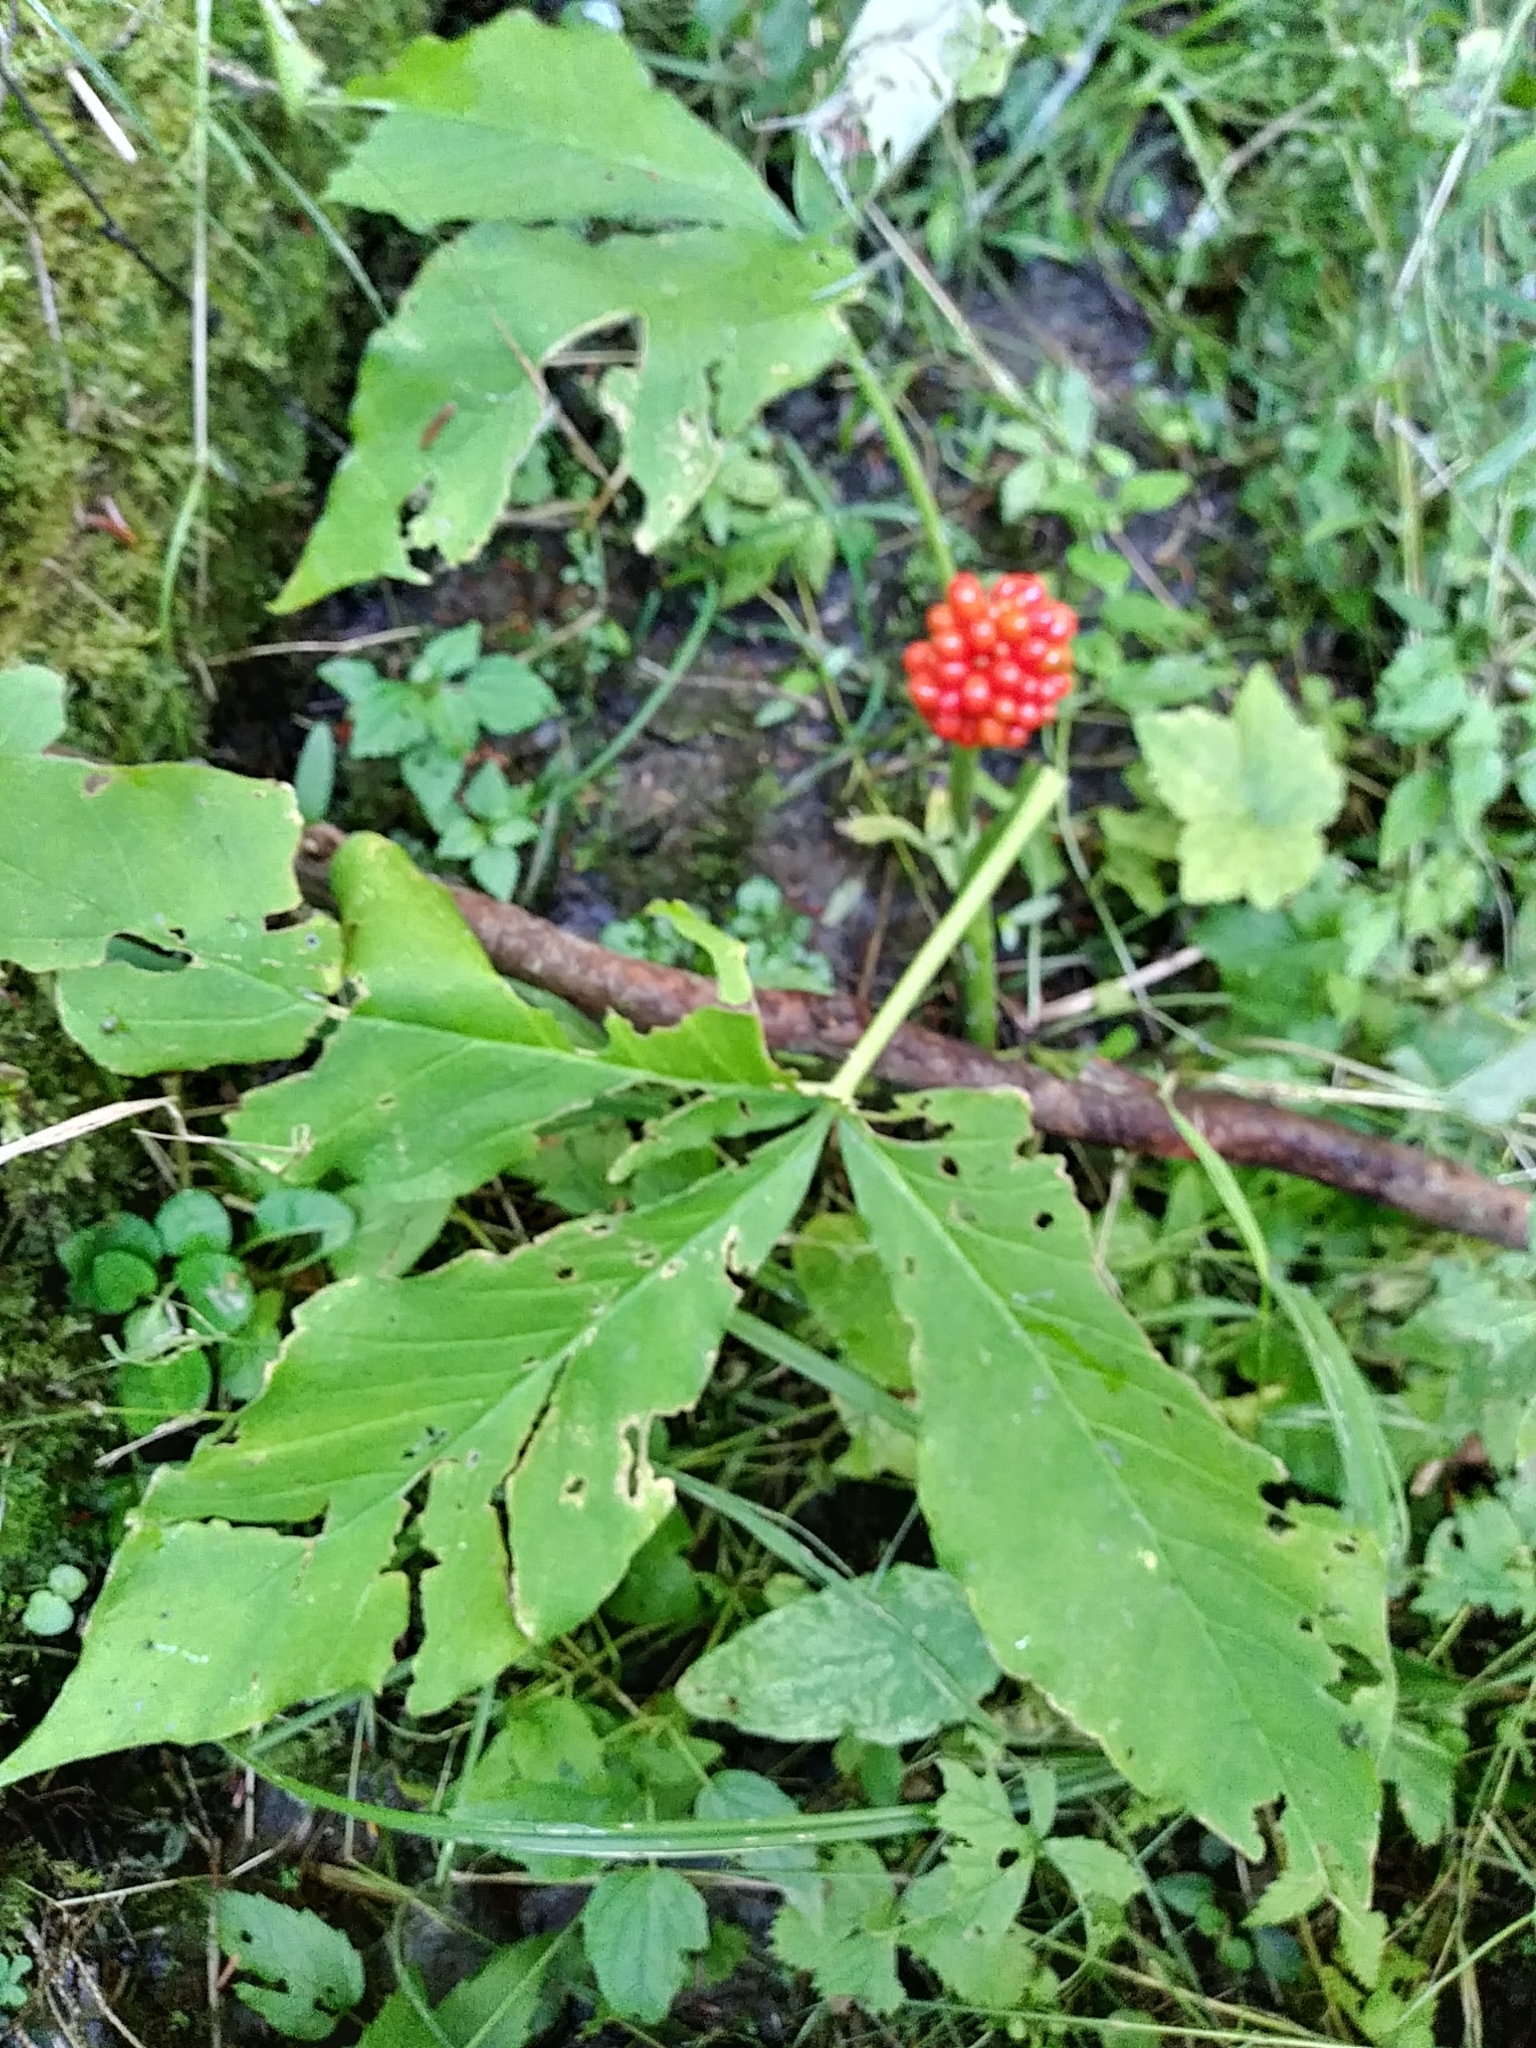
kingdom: Plantae
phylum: Tracheophyta
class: Liliopsida
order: Alismatales
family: Araceae
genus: Arisaema
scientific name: Arisaema triphyllum
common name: Jack-in-the-pulpit
